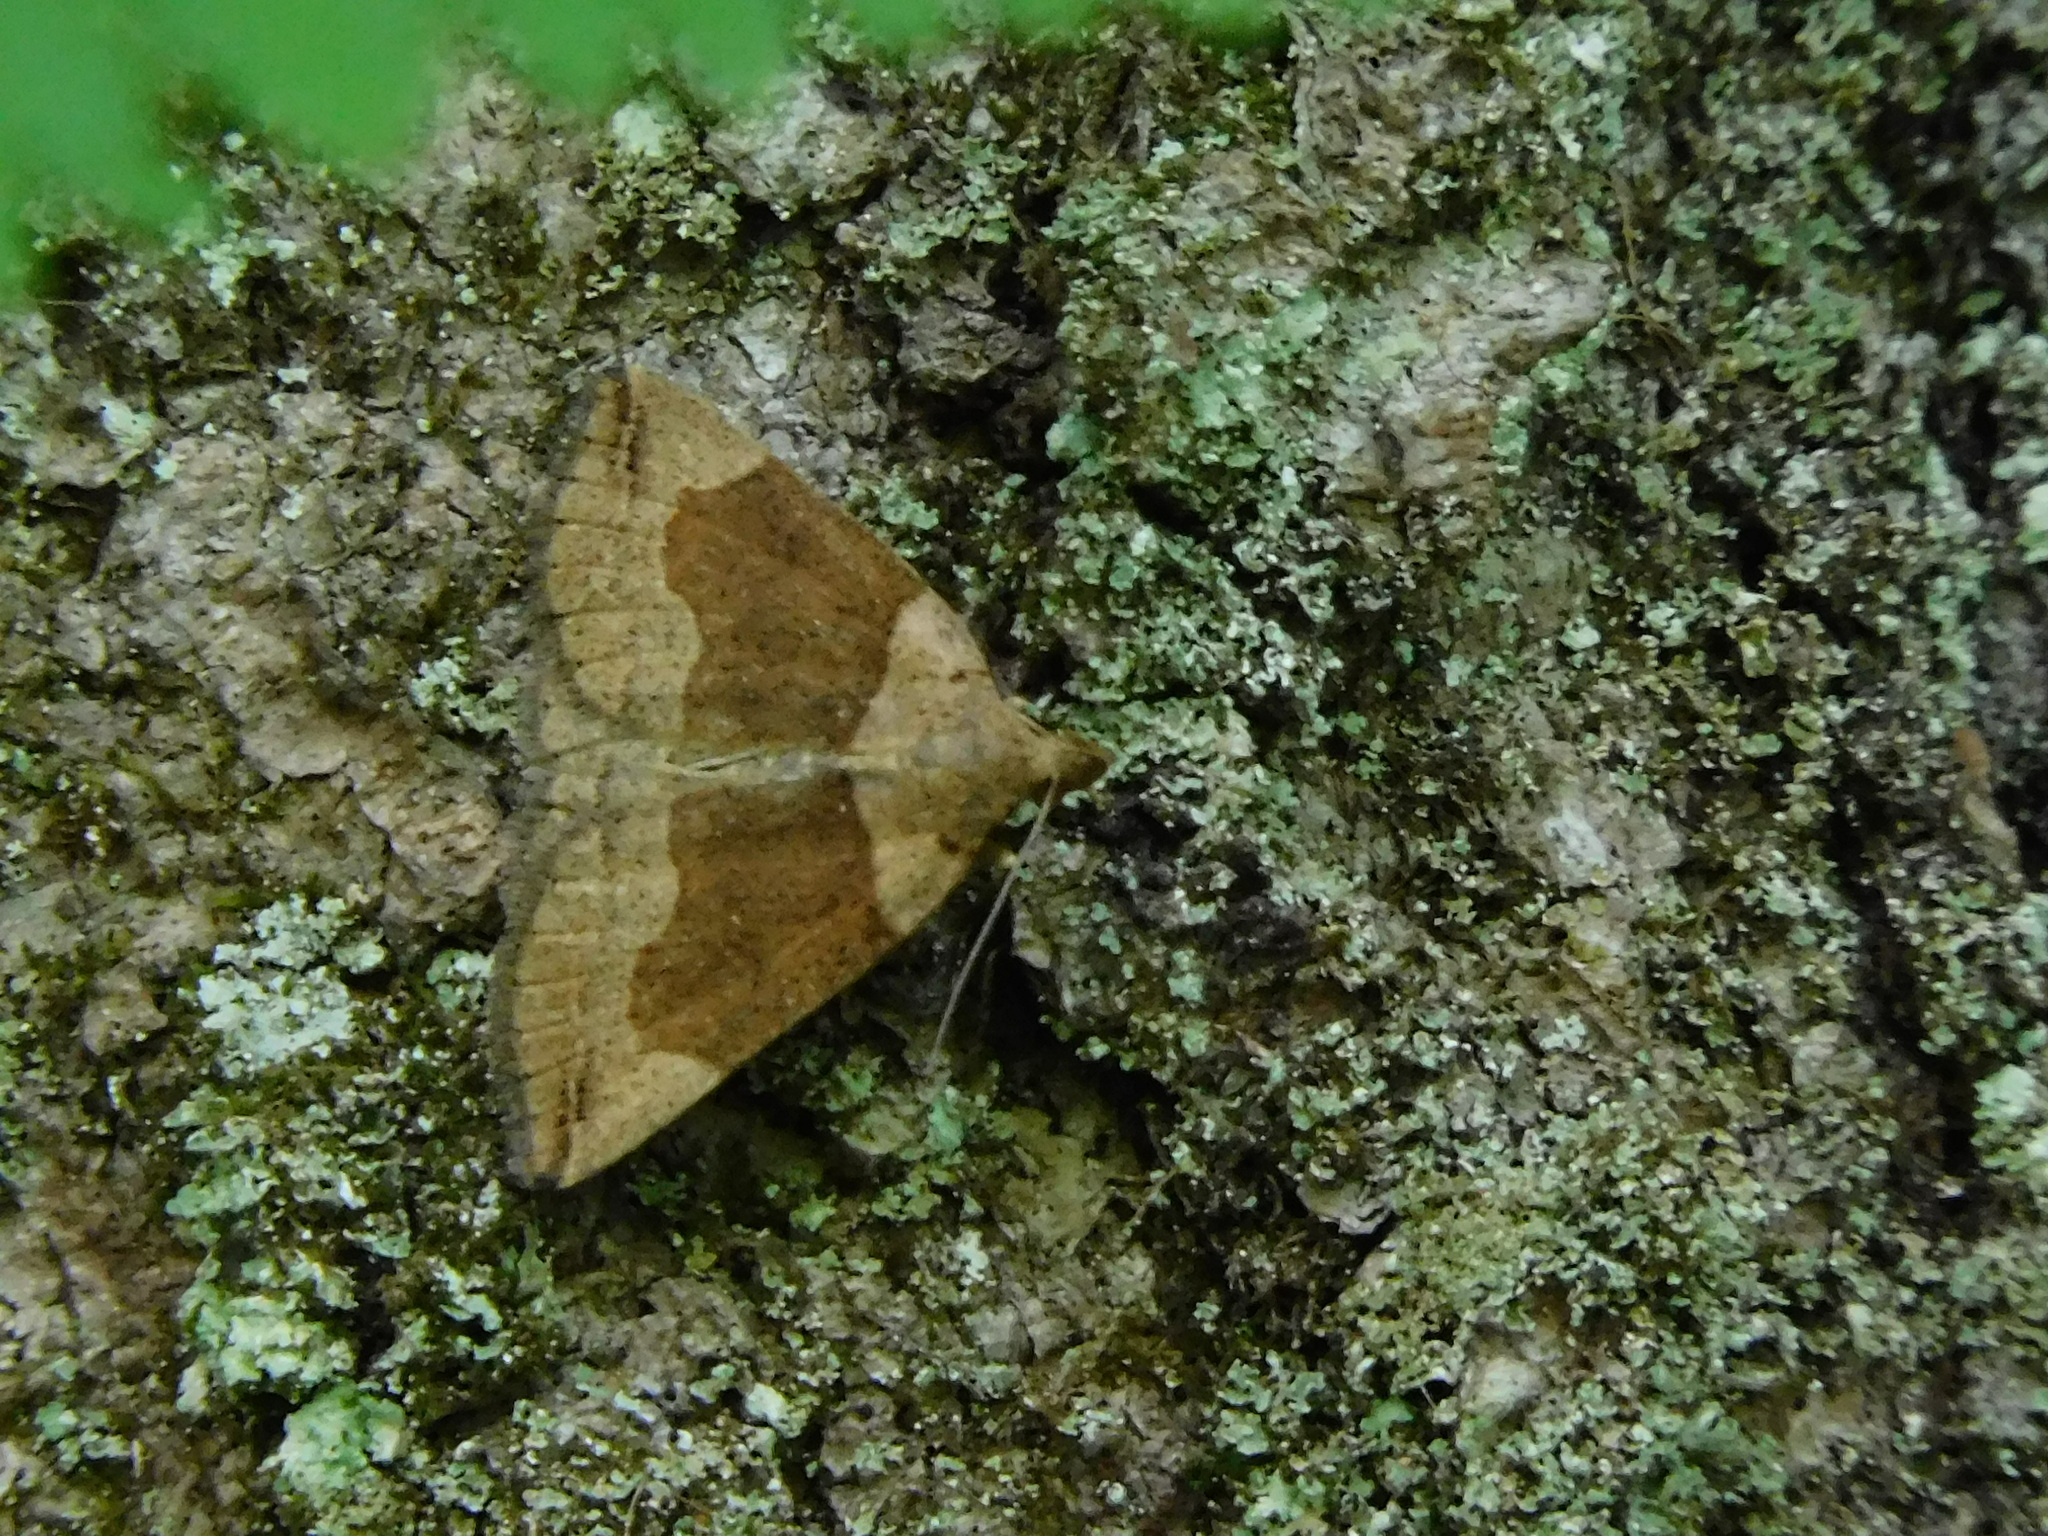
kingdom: Animalia
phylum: Arthropoda
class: Insecta
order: Lepidoptera
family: Erebidae
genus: Zanclognatha
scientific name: Zanclognatha laevigata
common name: Variable fan-foot
